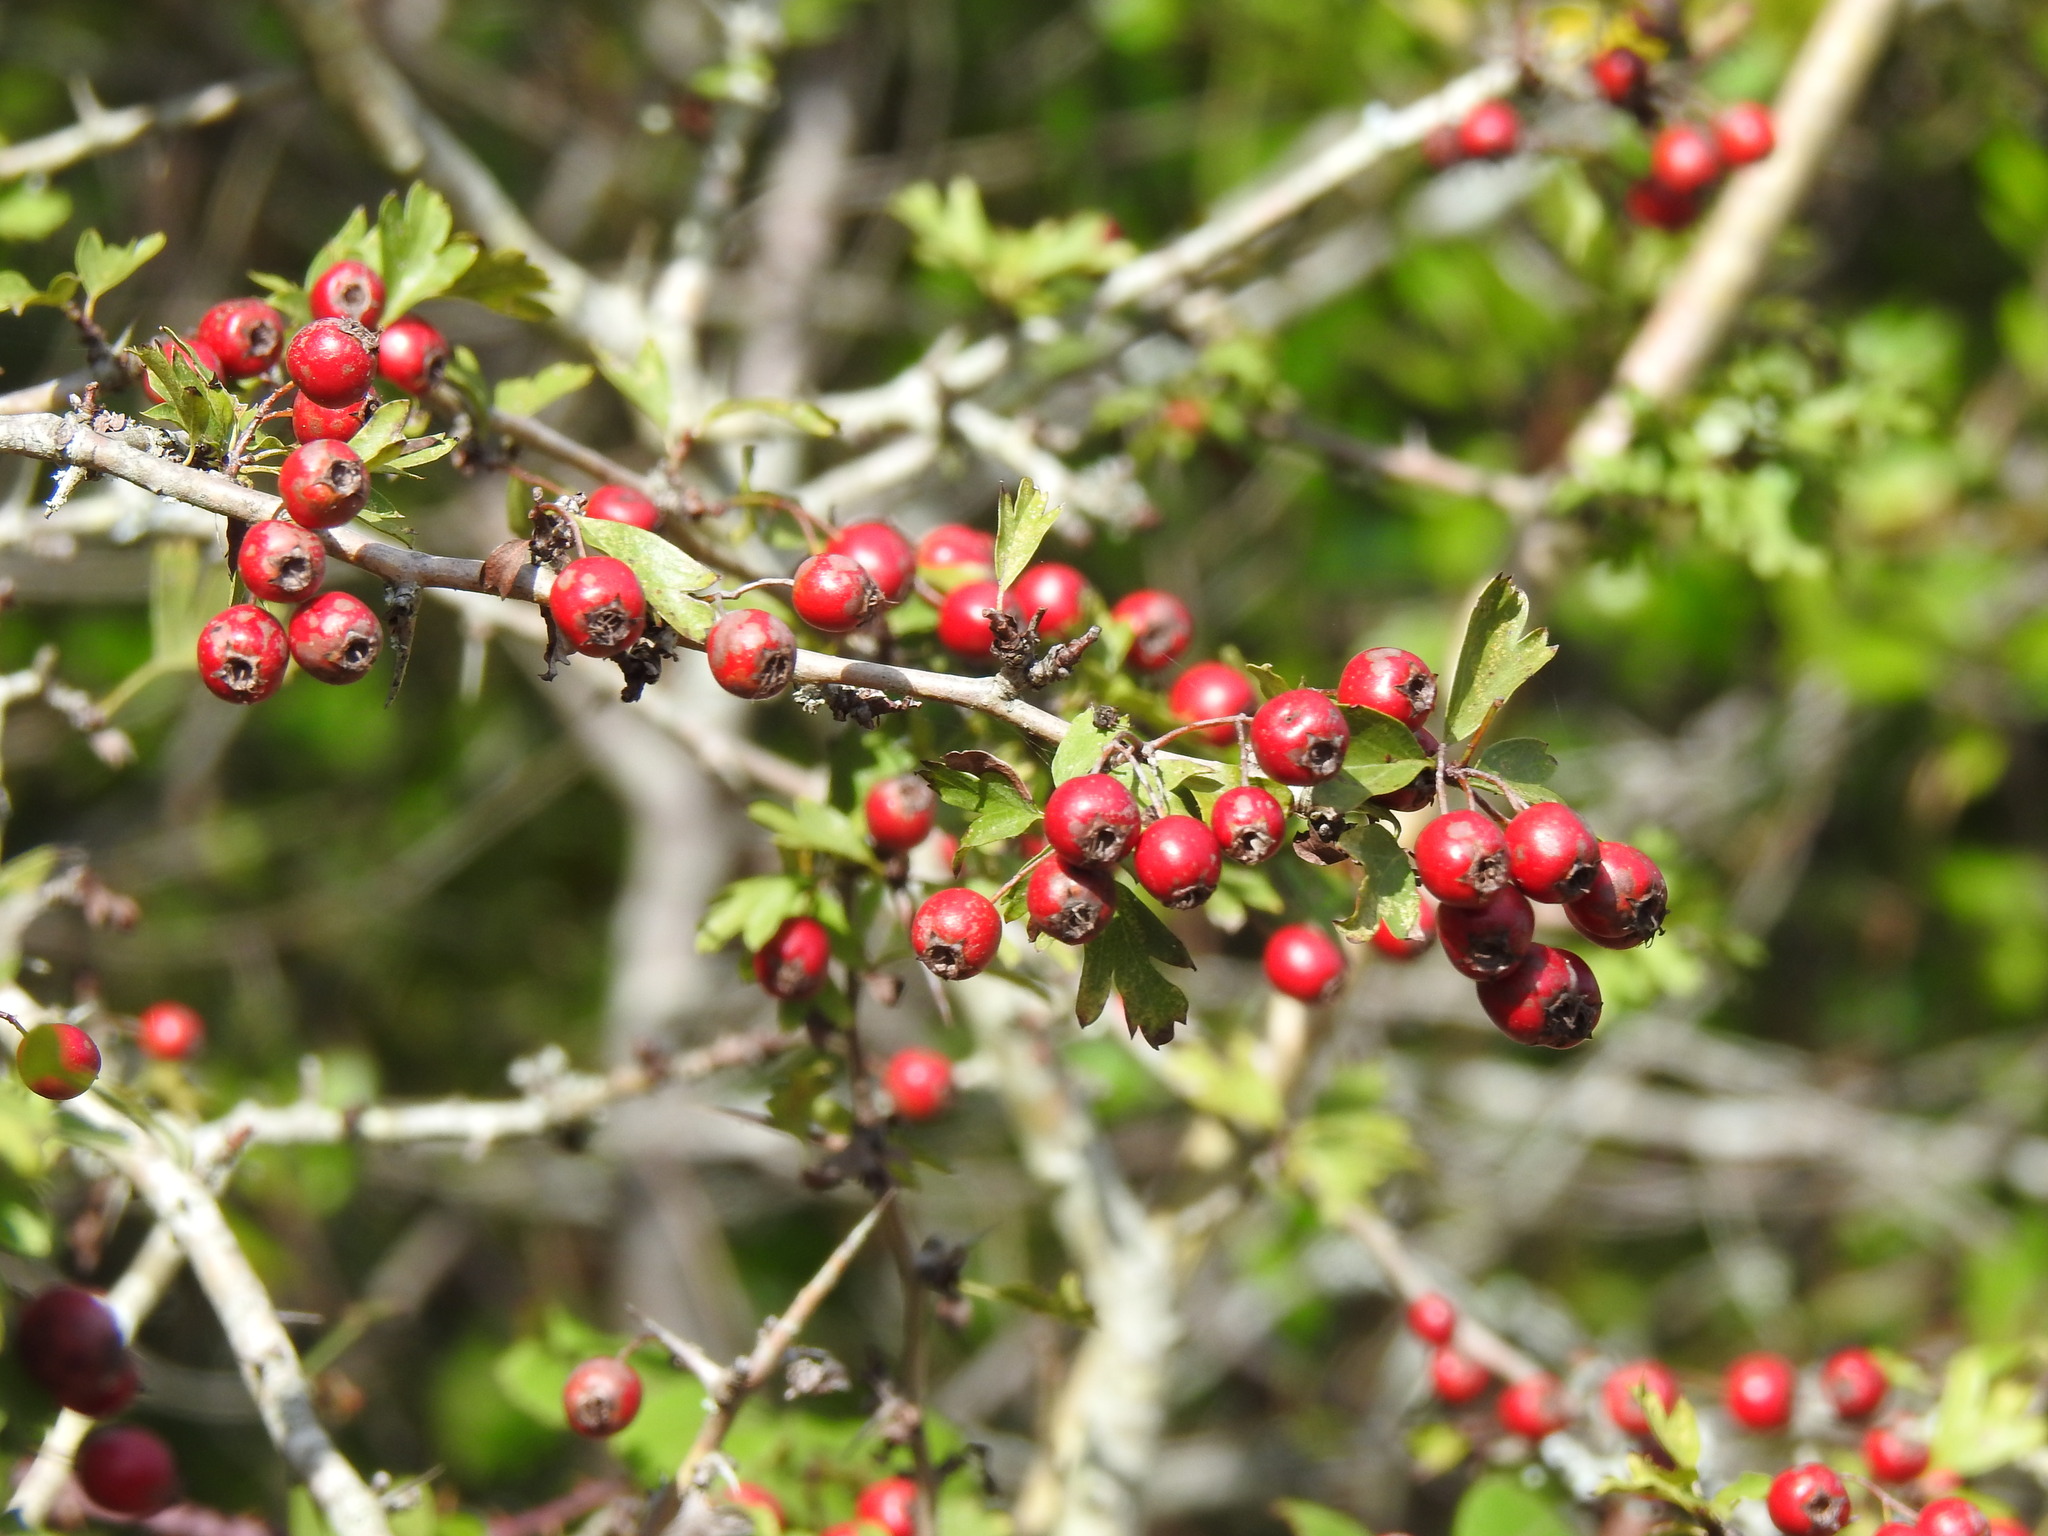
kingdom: Plantae
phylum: Tracheophyta
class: Magnoliopsida
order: Rosales
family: Rosaceae
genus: Crataegus
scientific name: Crataegus monogyna
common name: Hawthorn
